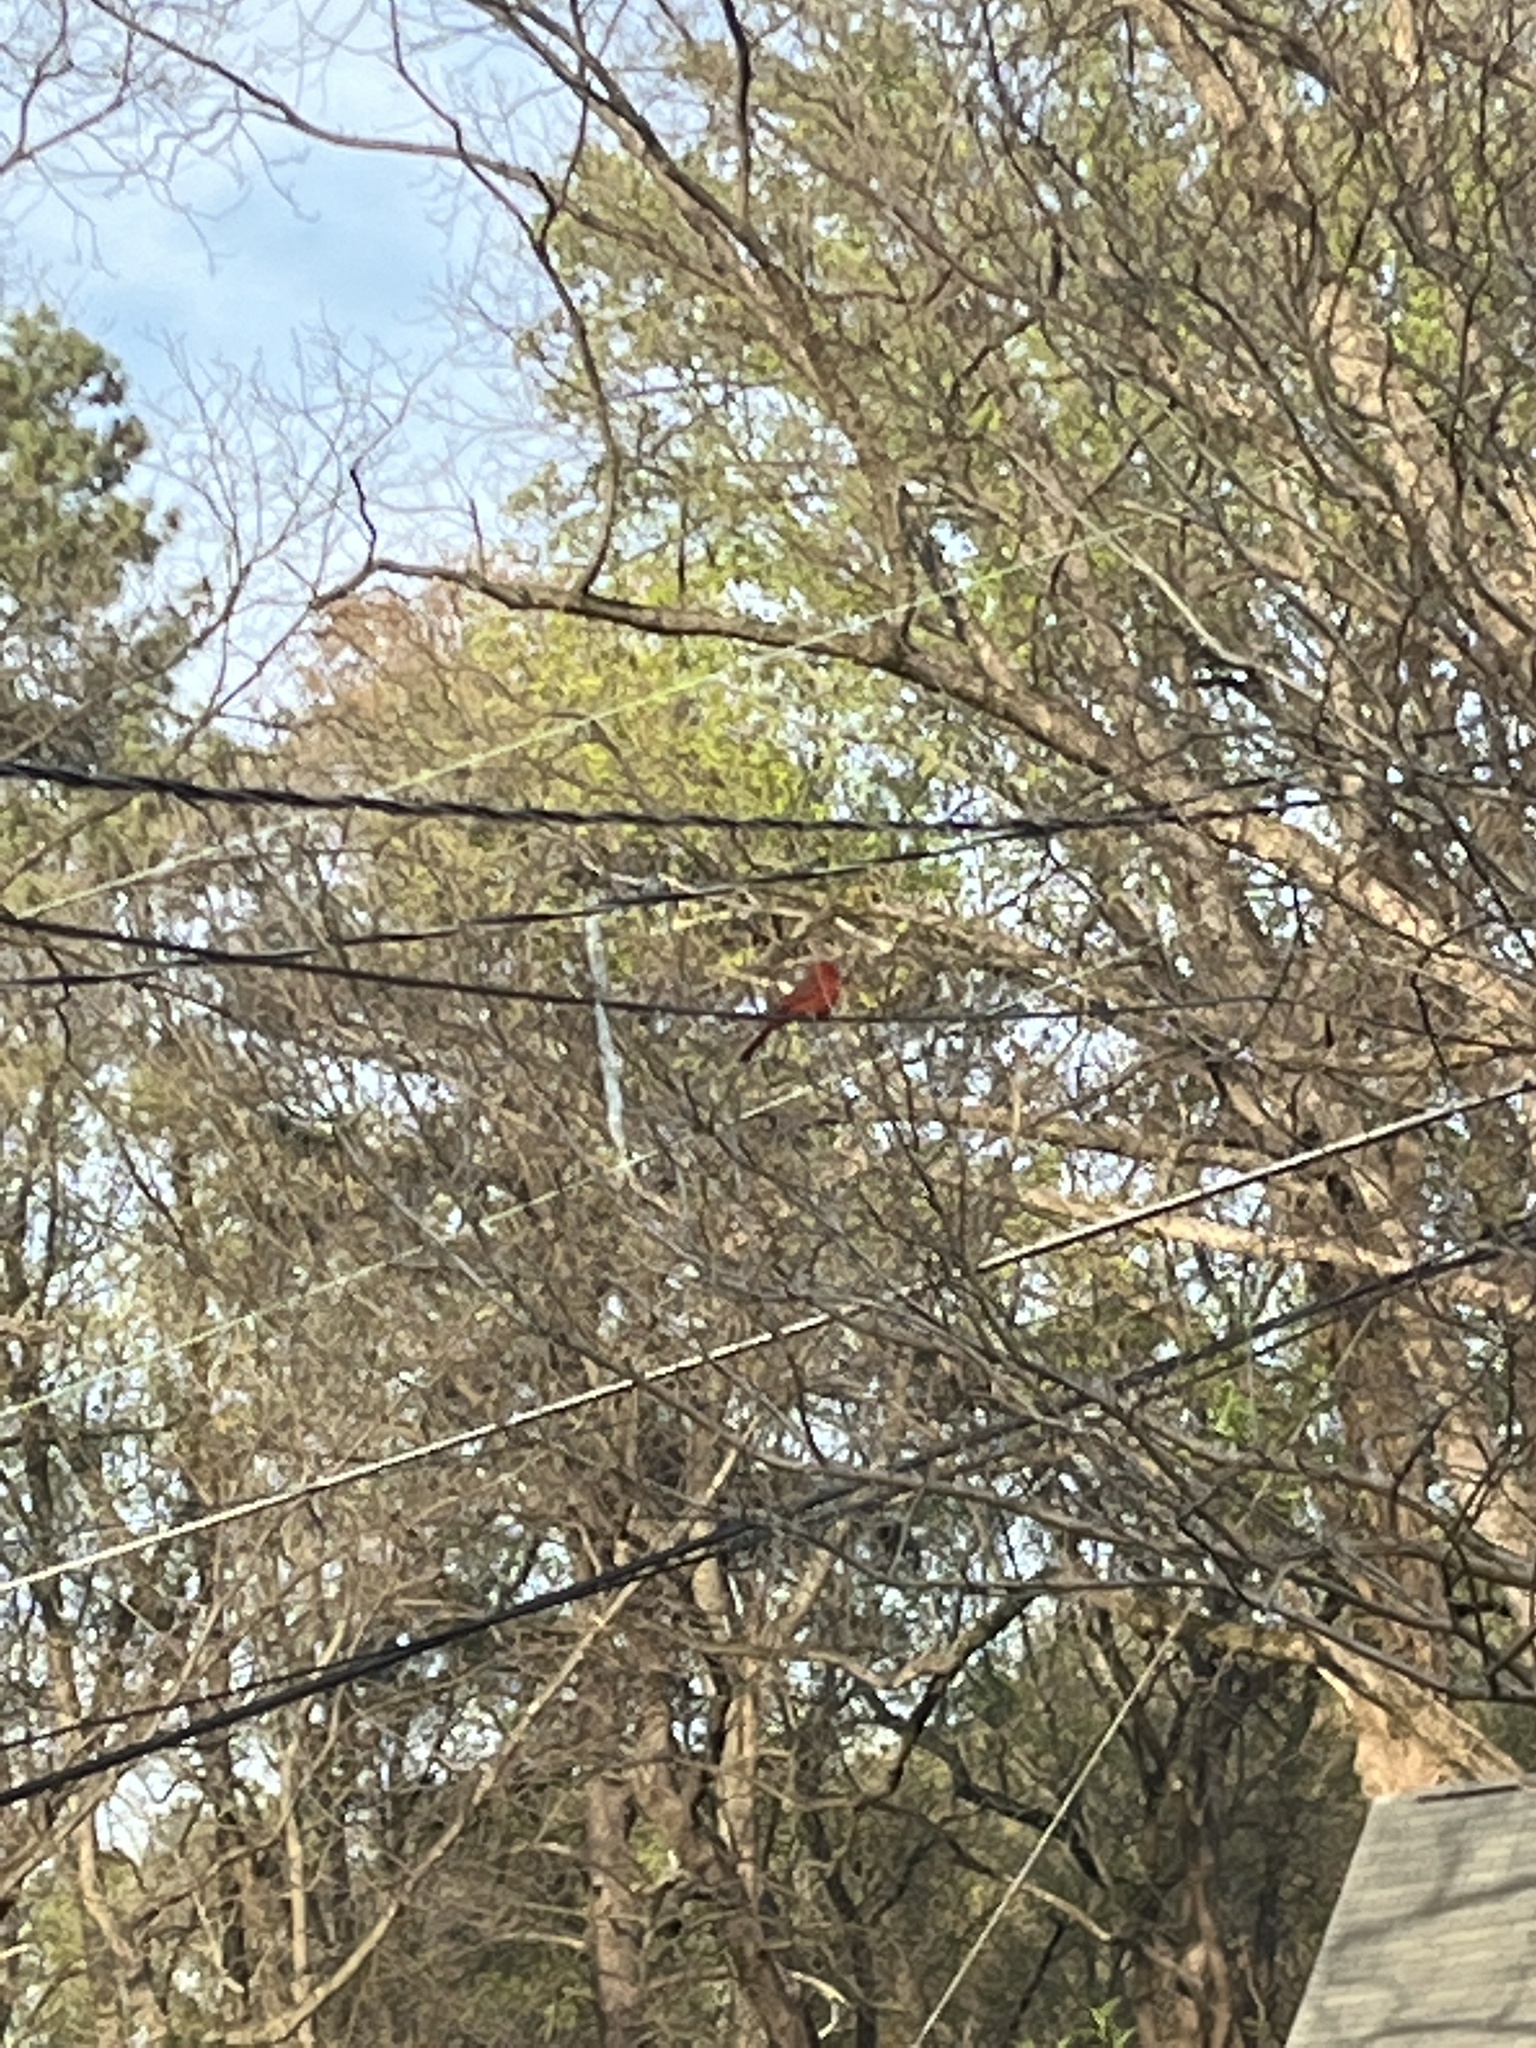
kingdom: Animalia
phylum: Chordata
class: Aves
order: Passeriformes
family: Cardinalidae
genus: Cardinalis
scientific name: Cardinalis cardinalis
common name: Northern cardinal
